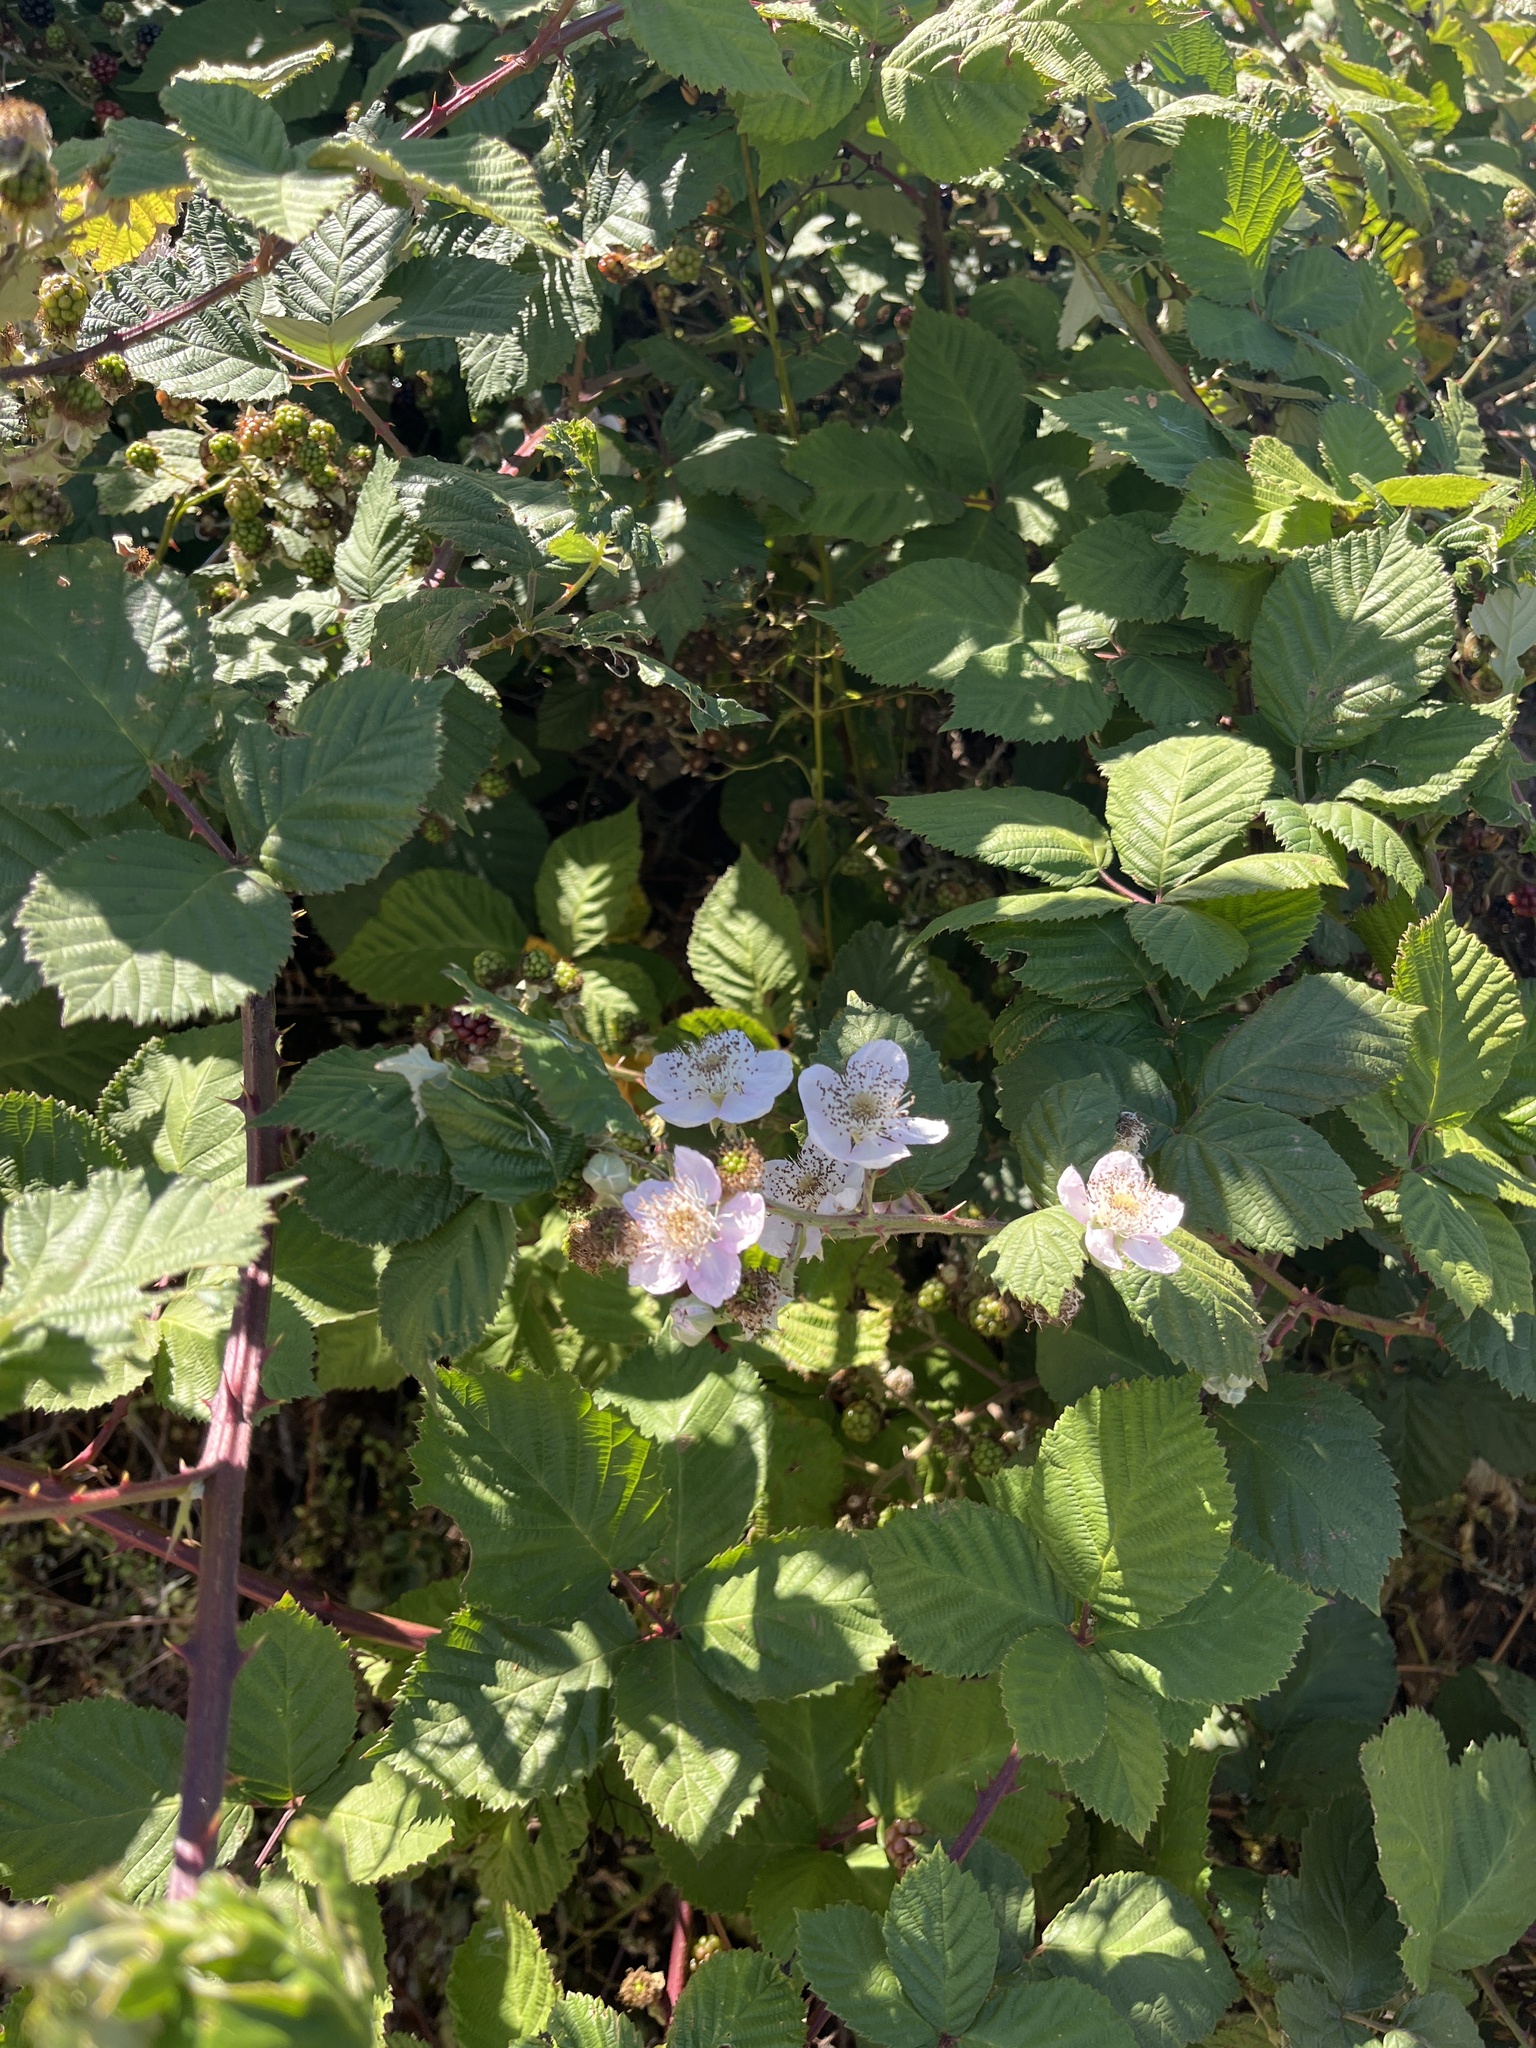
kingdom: Plantae
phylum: Tracheophyta
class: Magnoliopsida
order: Rosales
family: Rosaceae
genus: Rubus
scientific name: Rubus armeniacus
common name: Himalayan blackberry
